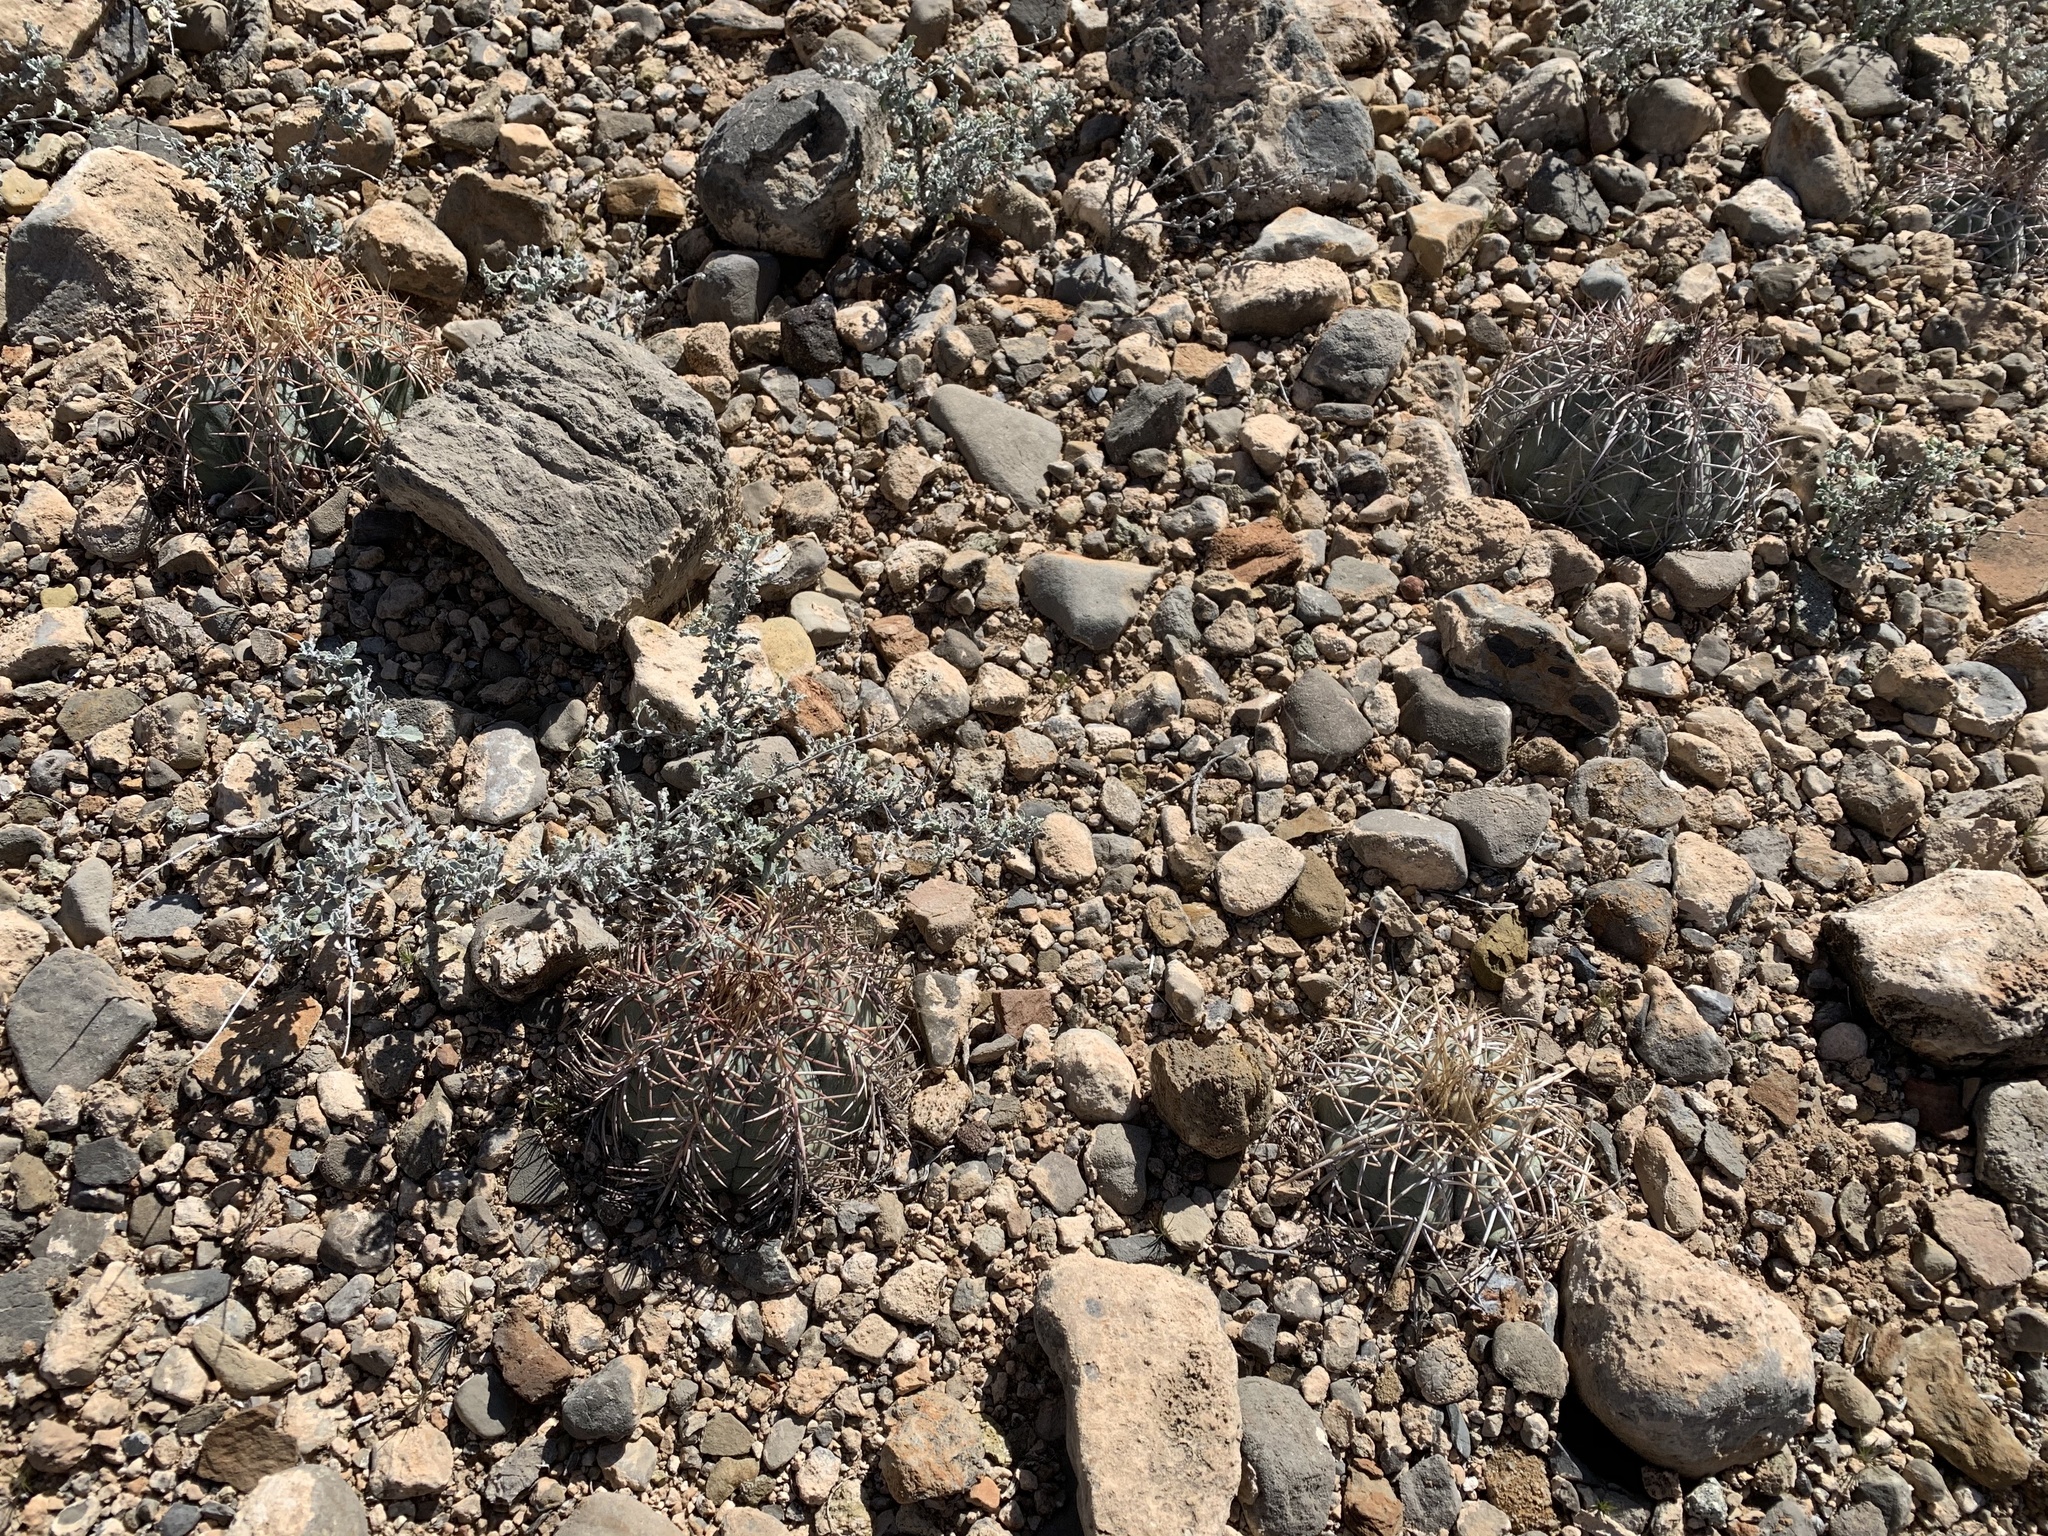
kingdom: Plantae
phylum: Tracheophyta
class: Magnoliopsida
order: Caryophyllales
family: Cactaceae
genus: Echinocactus
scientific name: Echinocactus horizonthalonius
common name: Devilshead
